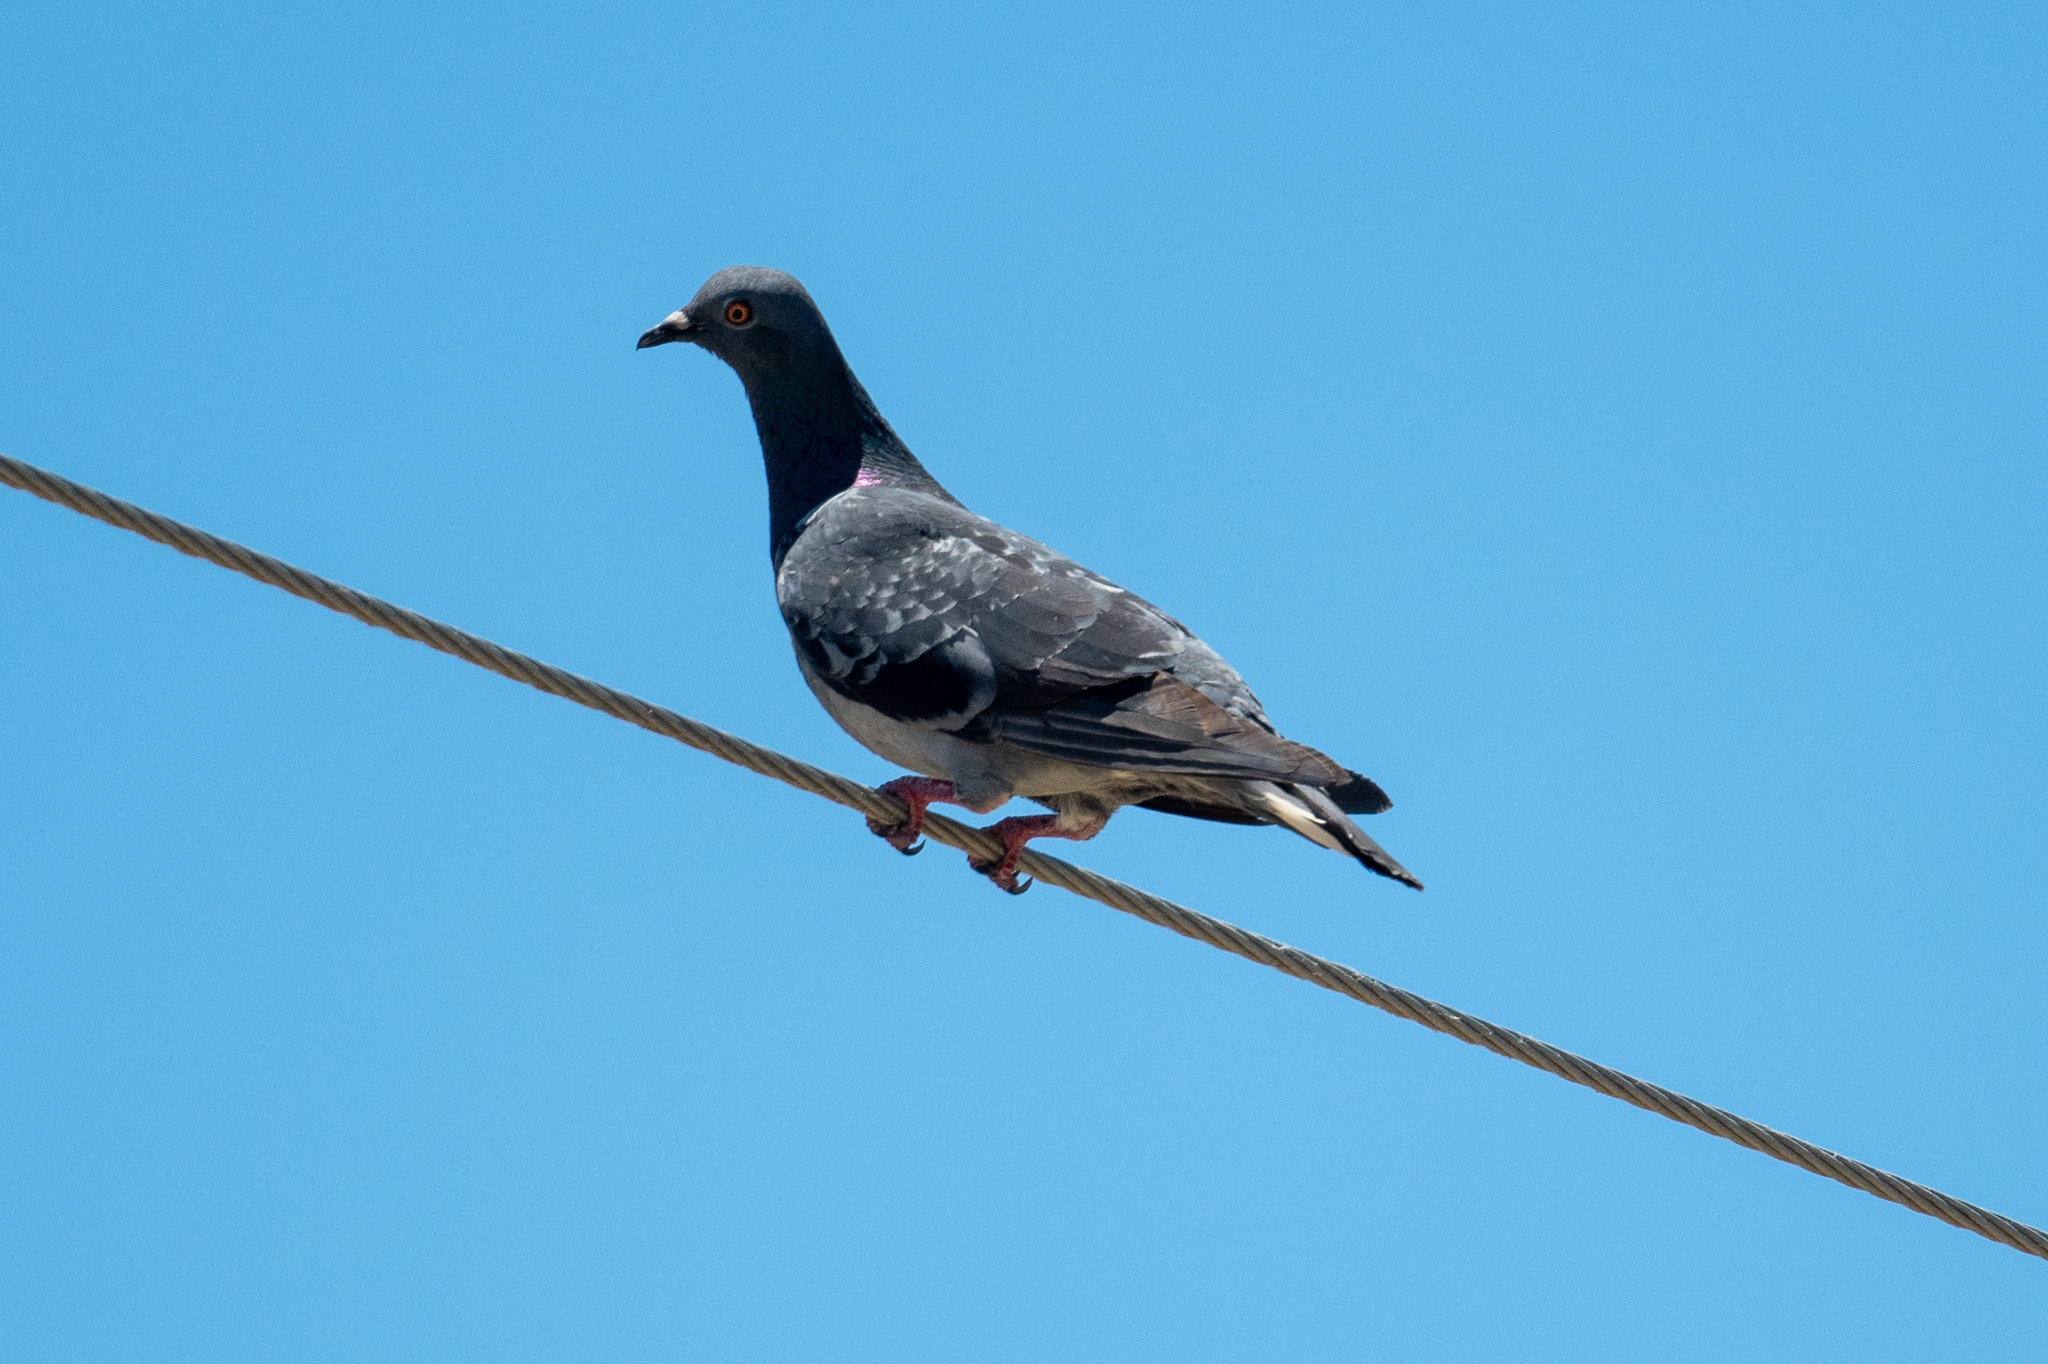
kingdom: Animalia
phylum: Chordata
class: Aves
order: Columbiformes
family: Columbidae
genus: Columba
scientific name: Columba livia
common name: Rock pigeon
